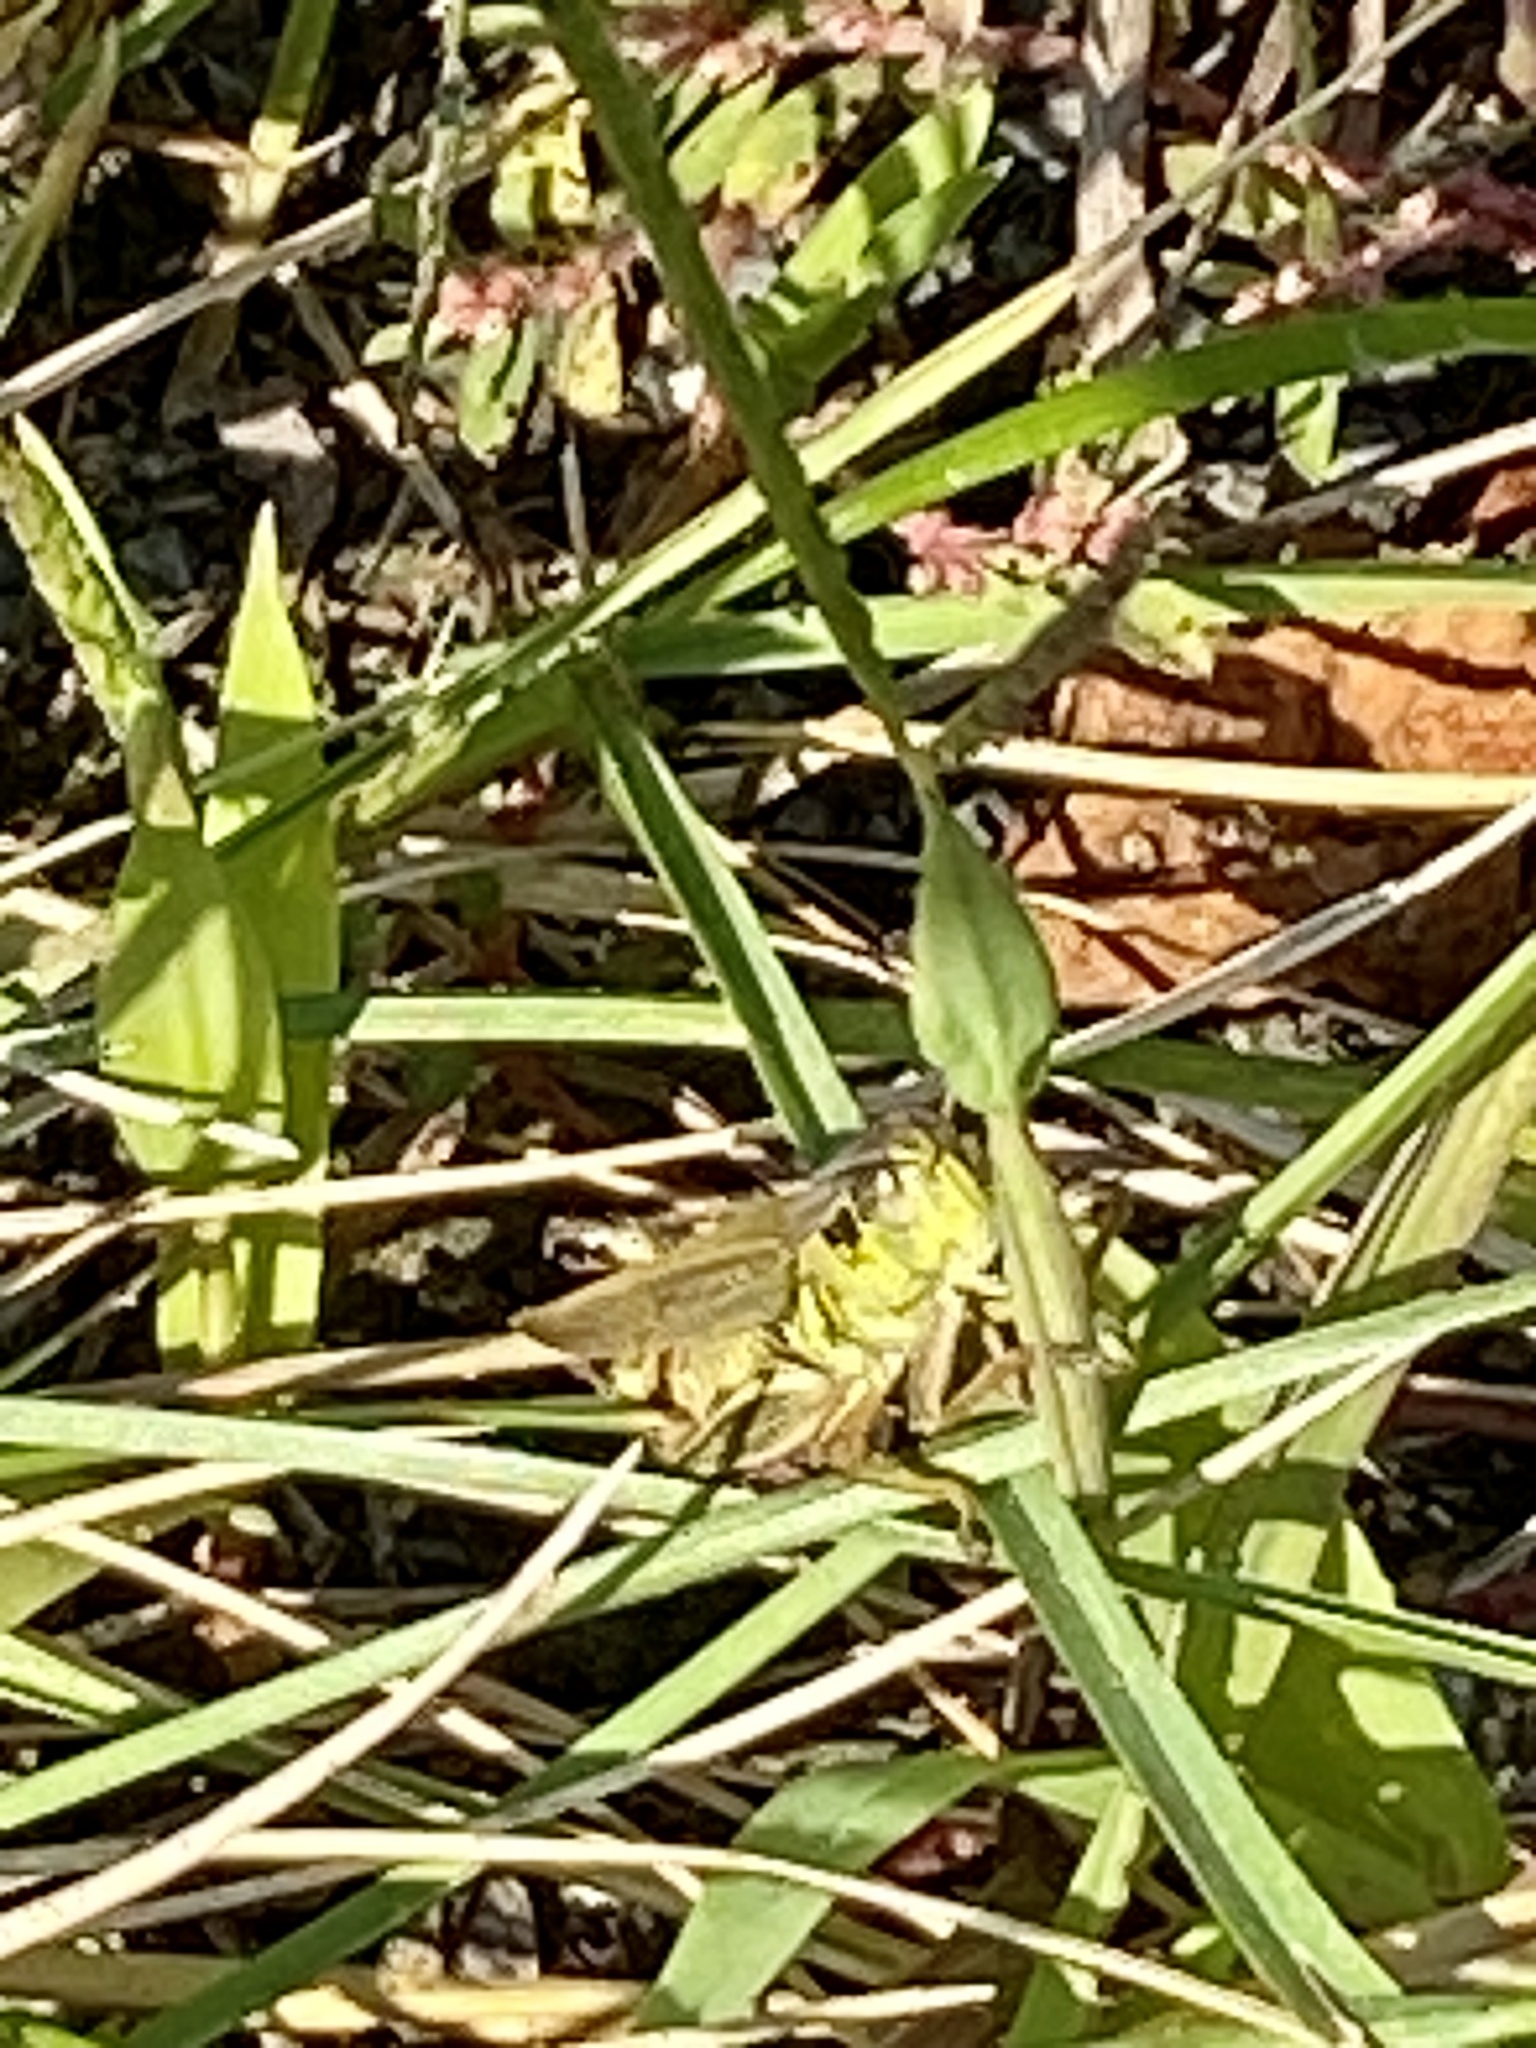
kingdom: Animalia
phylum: Arthropoda
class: Insecta
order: Orthoptera
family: Acrididae
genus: Melanoplus
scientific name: Melanoplus femurrubrum
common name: Red-legged grasshopper
